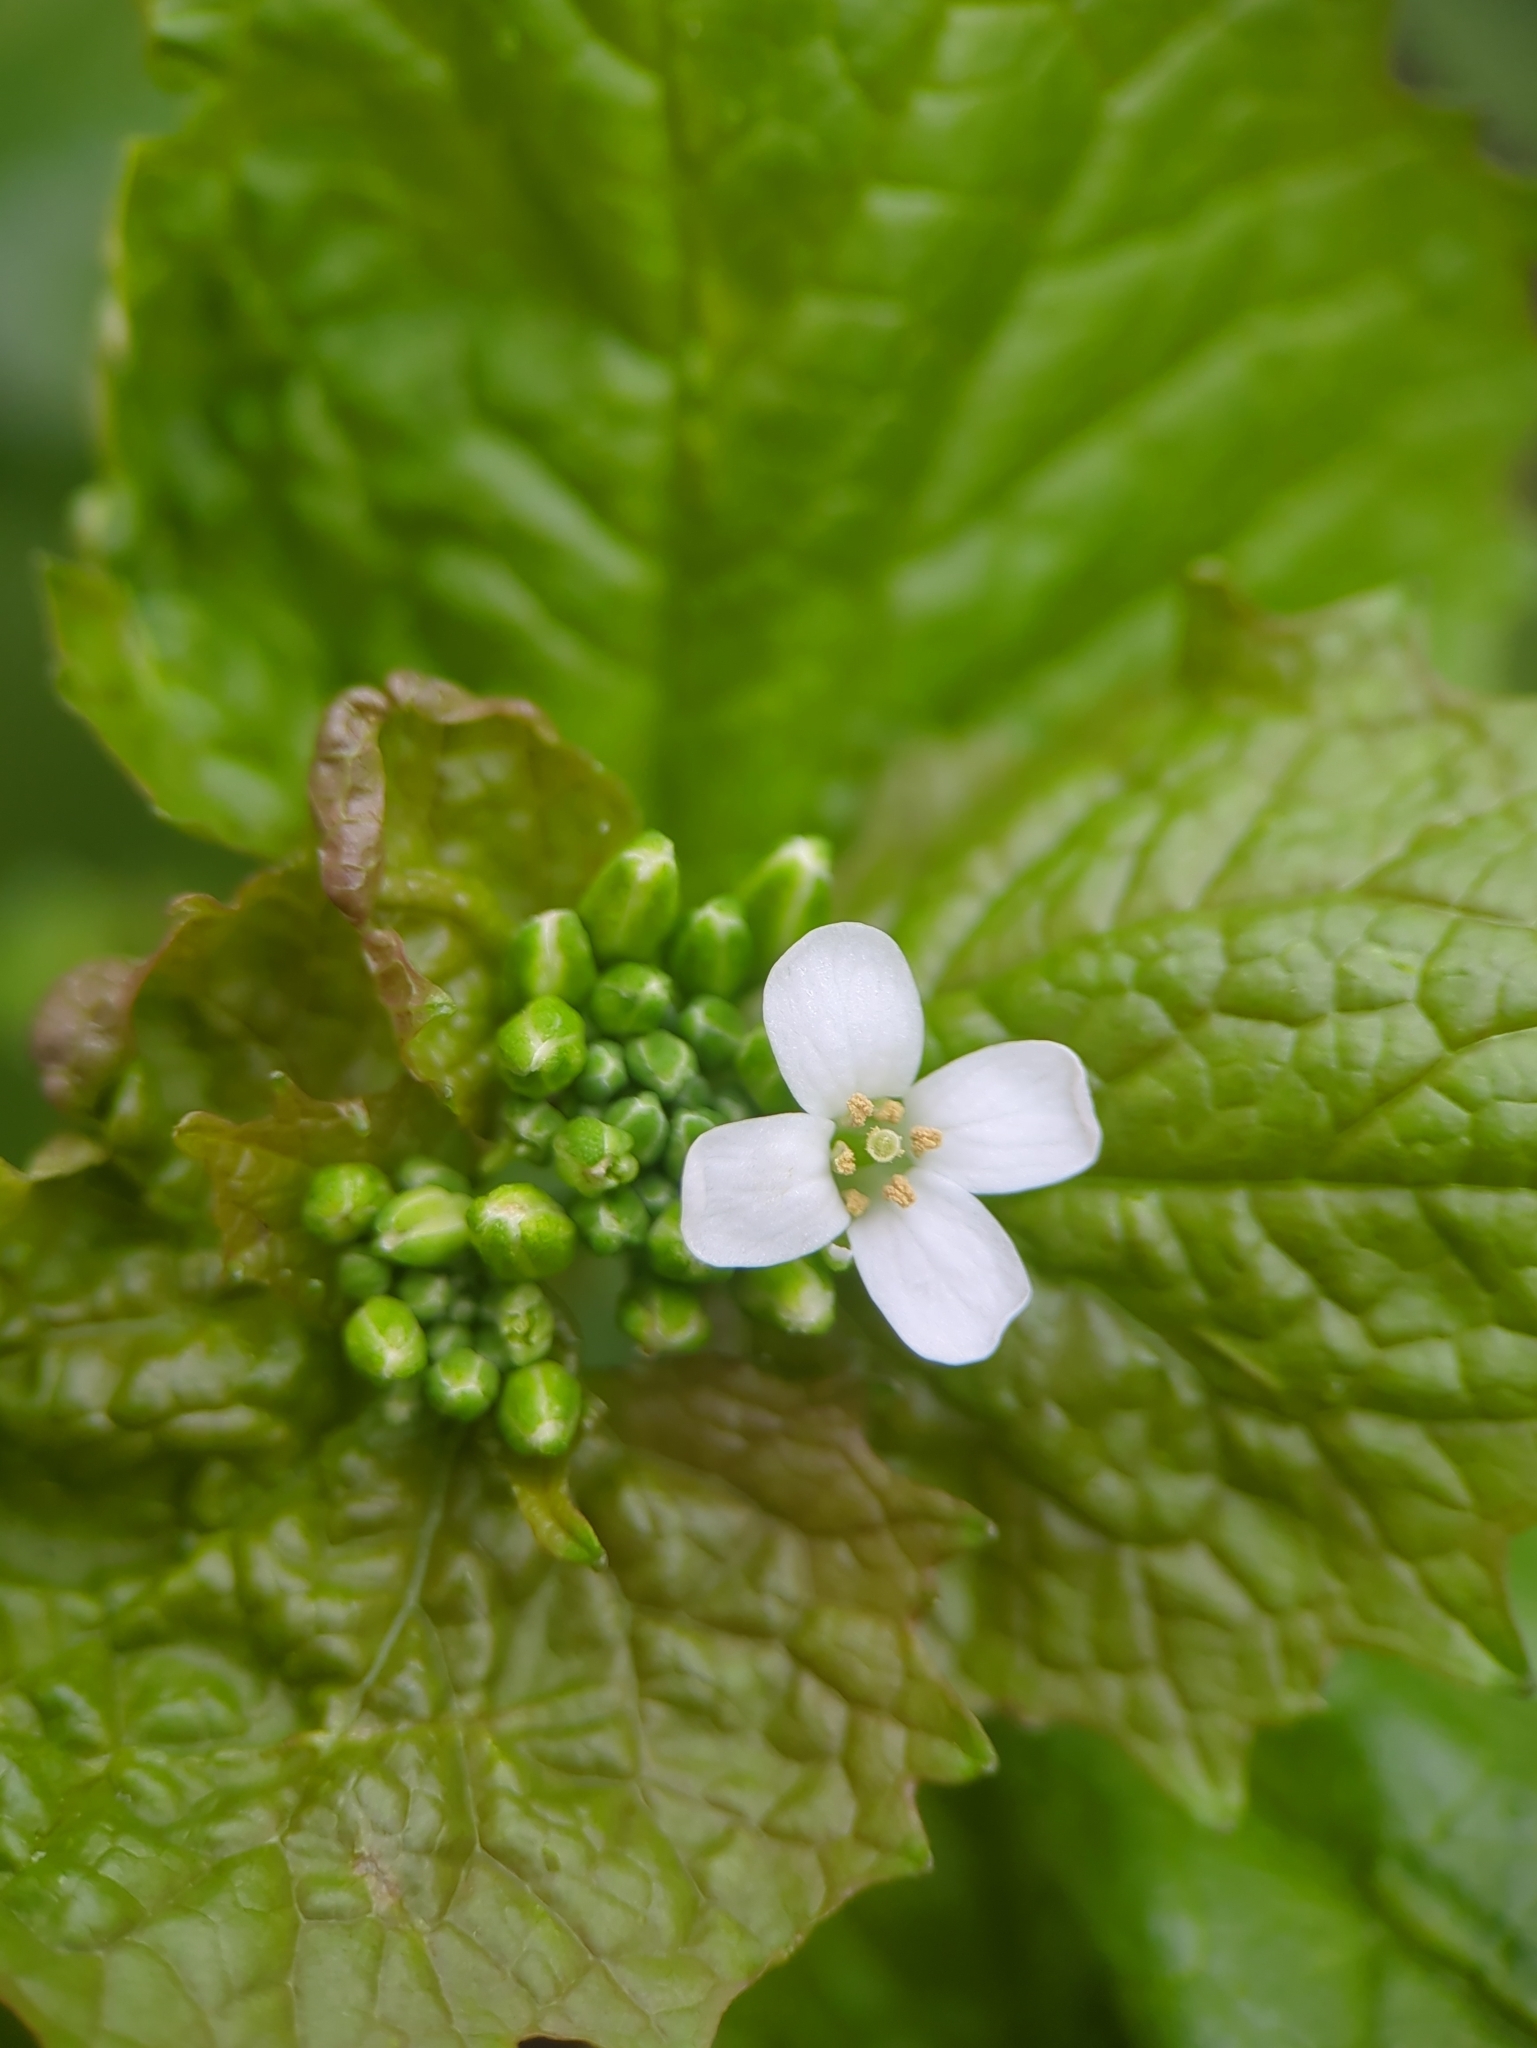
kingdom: Plantae
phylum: Tracheophyta
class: Magnoliopsida
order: Brassicales
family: Brassicaceae
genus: Alliaria
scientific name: Alliaria petiolata
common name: Garlic mustard
